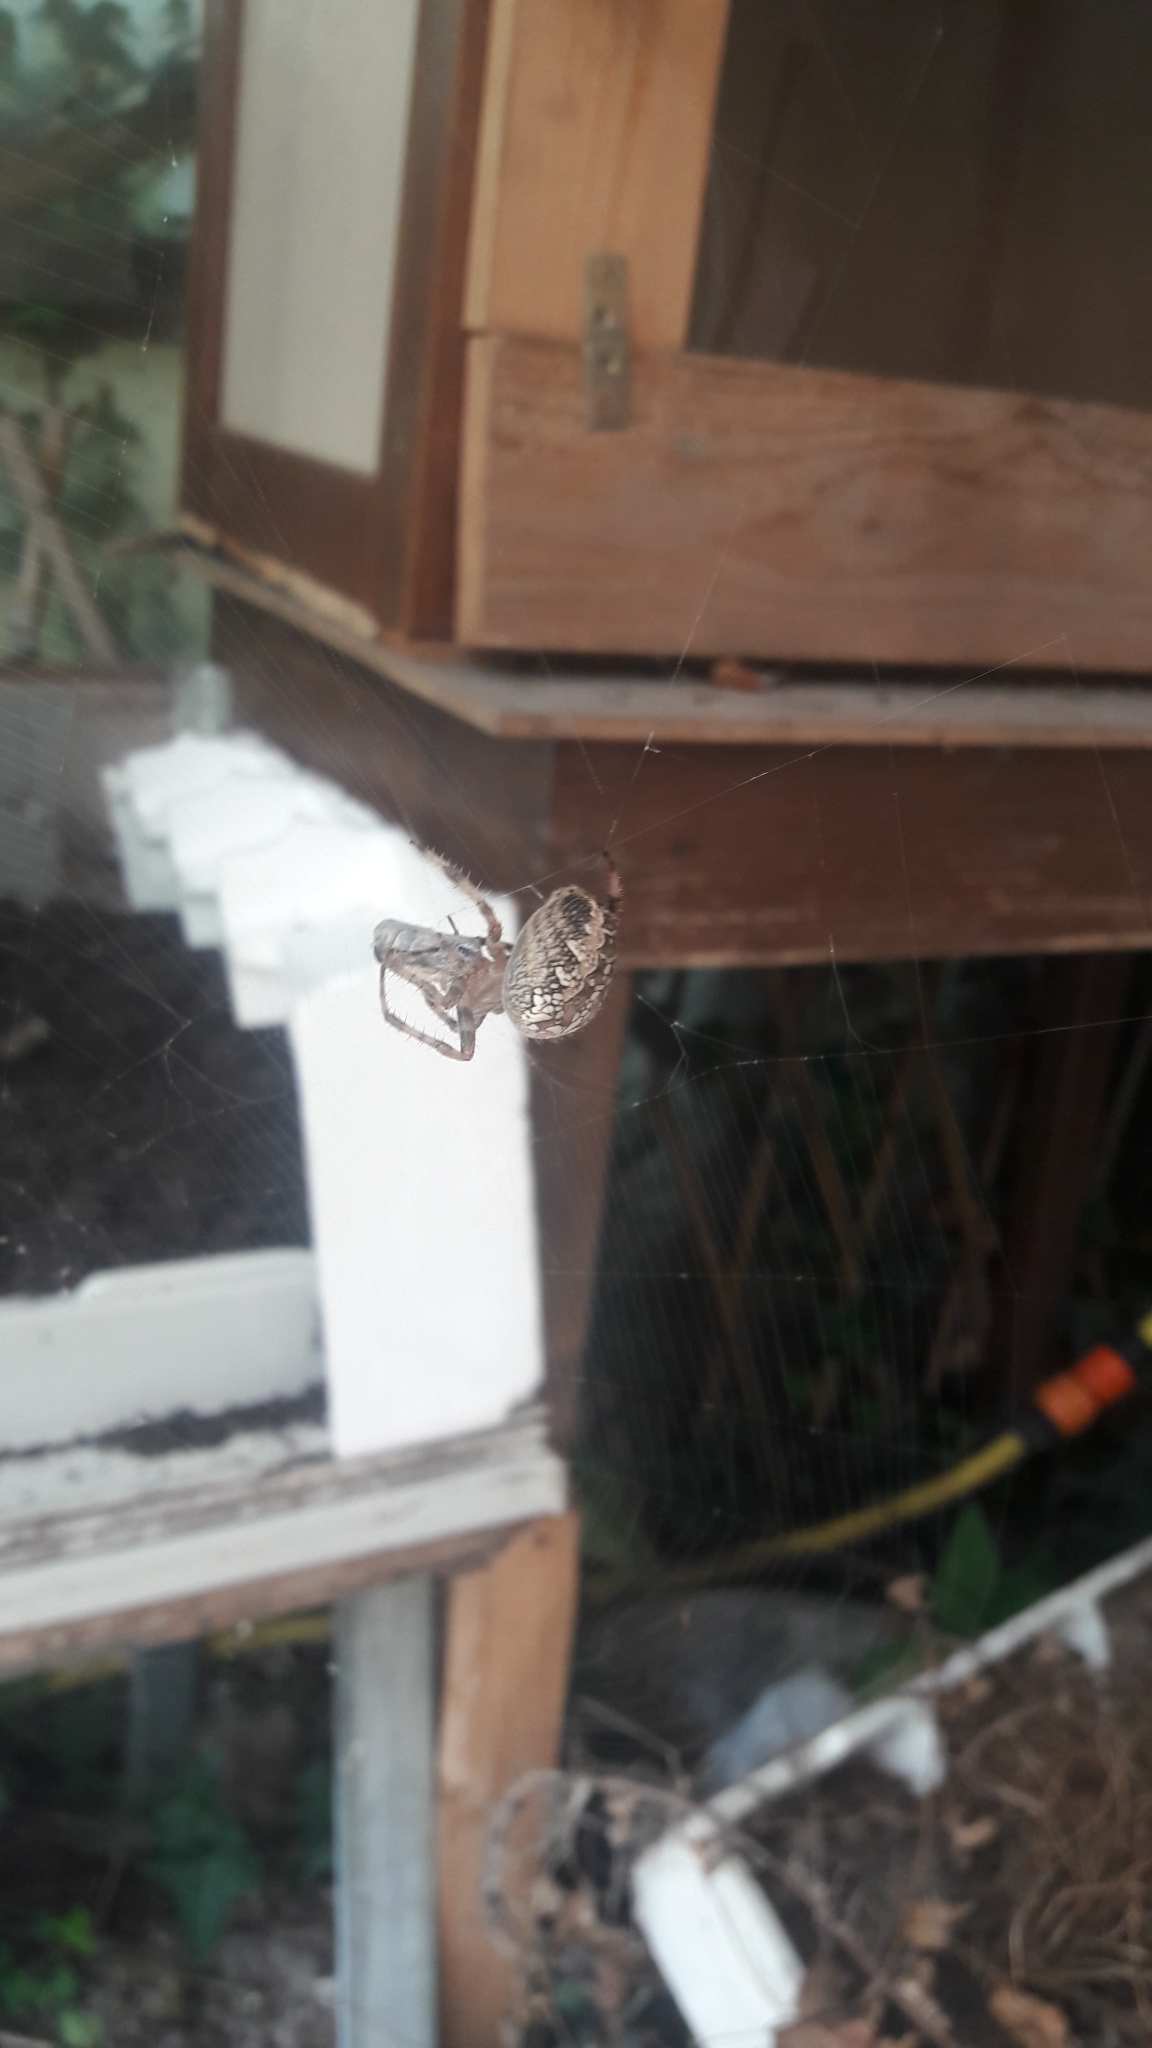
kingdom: Animalia
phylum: Arthropoda
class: Arachnida
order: Araneae
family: Araneidae
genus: Araneus
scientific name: Araneus diadematus
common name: Cross orbweaver
